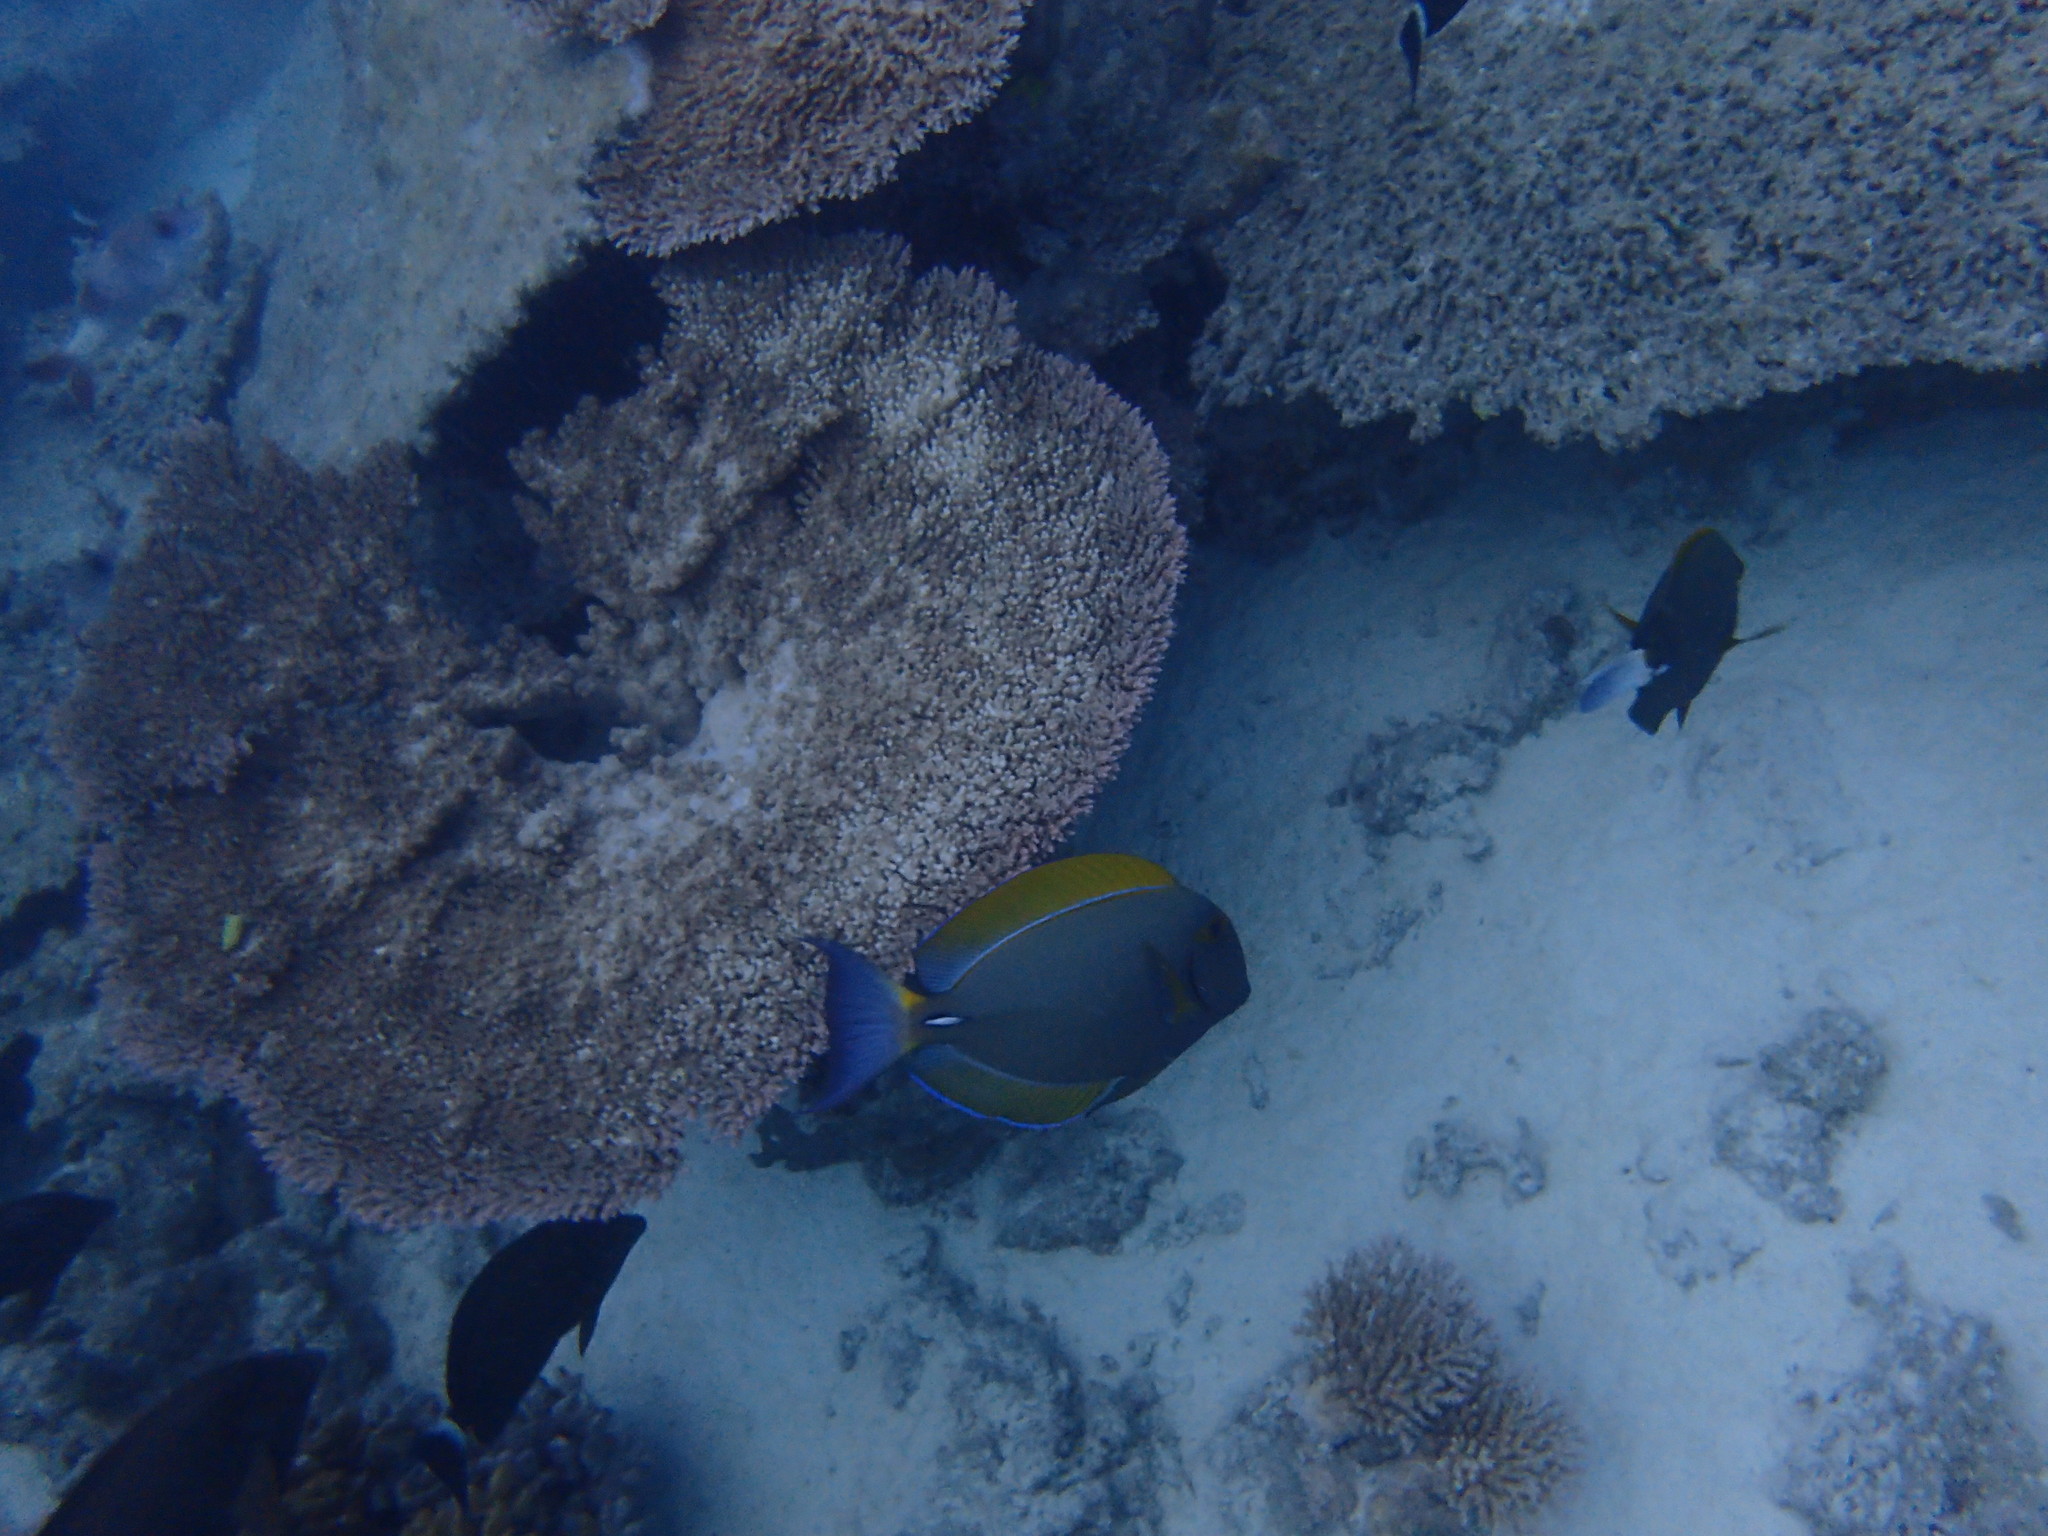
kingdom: Animalia
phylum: Chordata
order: Perciformes
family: Acanthuridae
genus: Acanthurus
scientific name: Acanthurus dussumieri
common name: Dussumier's surgeonfish
